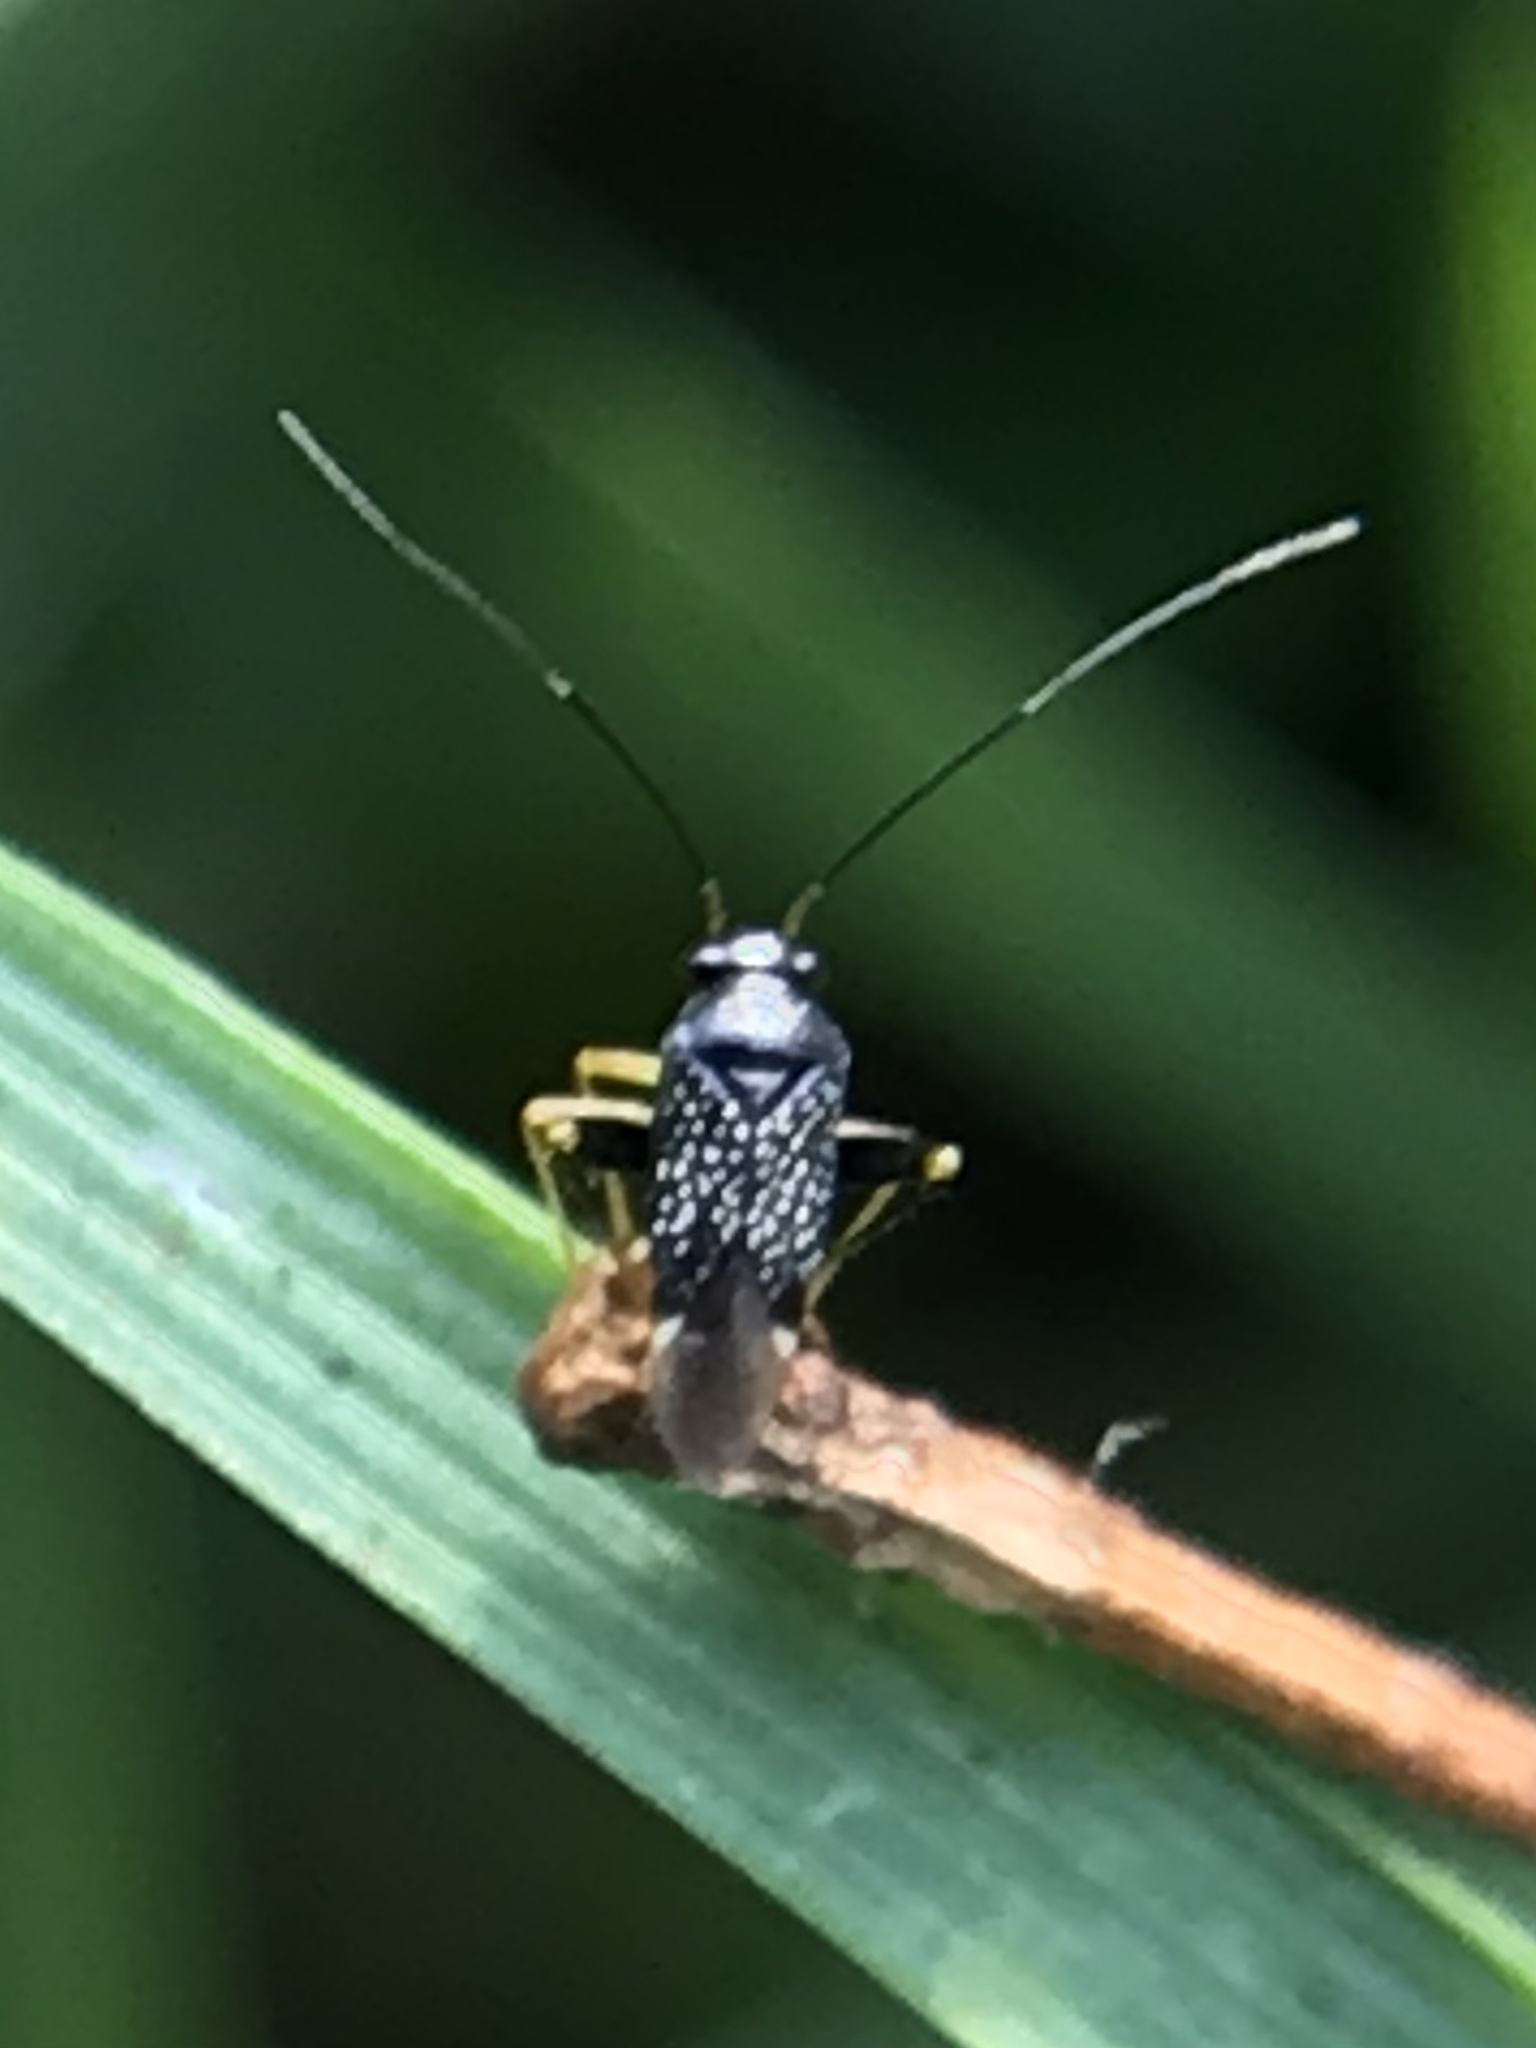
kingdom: Animalia
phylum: Arthropoda
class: Insecta
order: Hemiptera
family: Miridae
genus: Microtechnites
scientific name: Microtechnites bractatus
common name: Garden fleahopper
